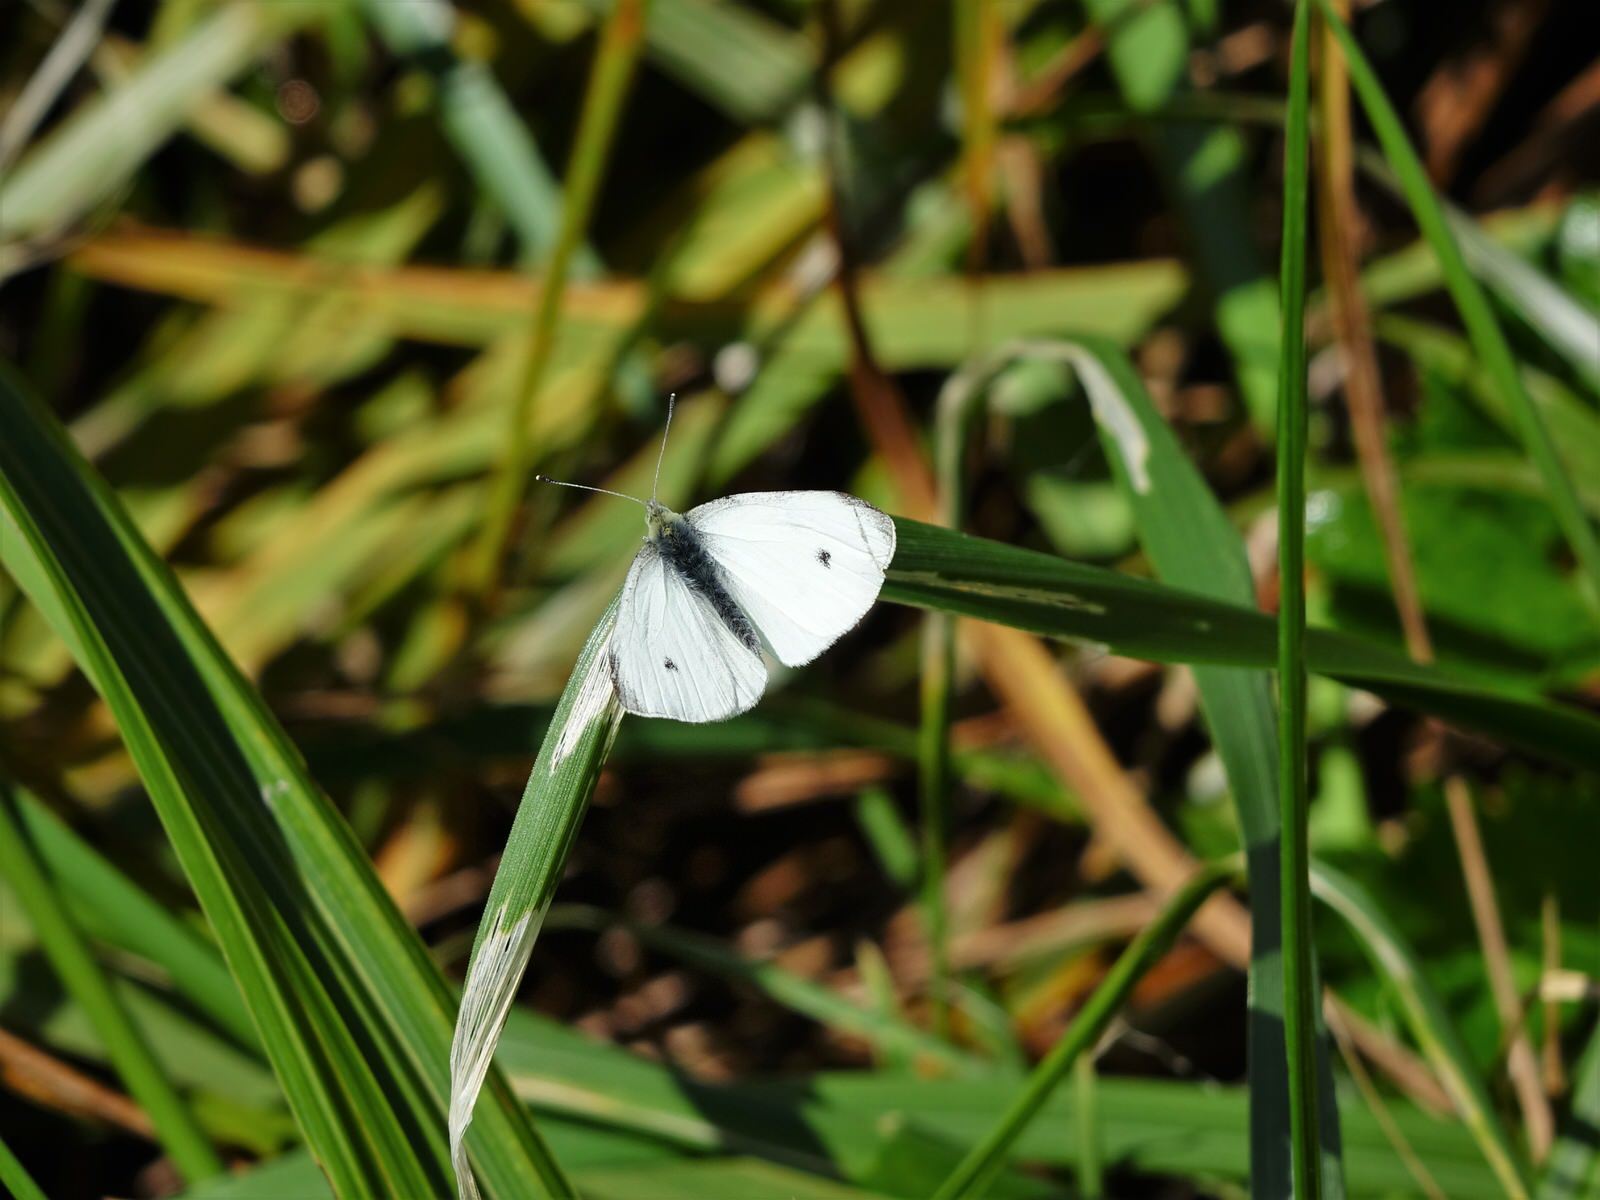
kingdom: Animalia
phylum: Arthropoda
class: Insecta
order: Lepidoptera
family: Pieridae
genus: Pieris
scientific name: Pieris rapae
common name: Small white
